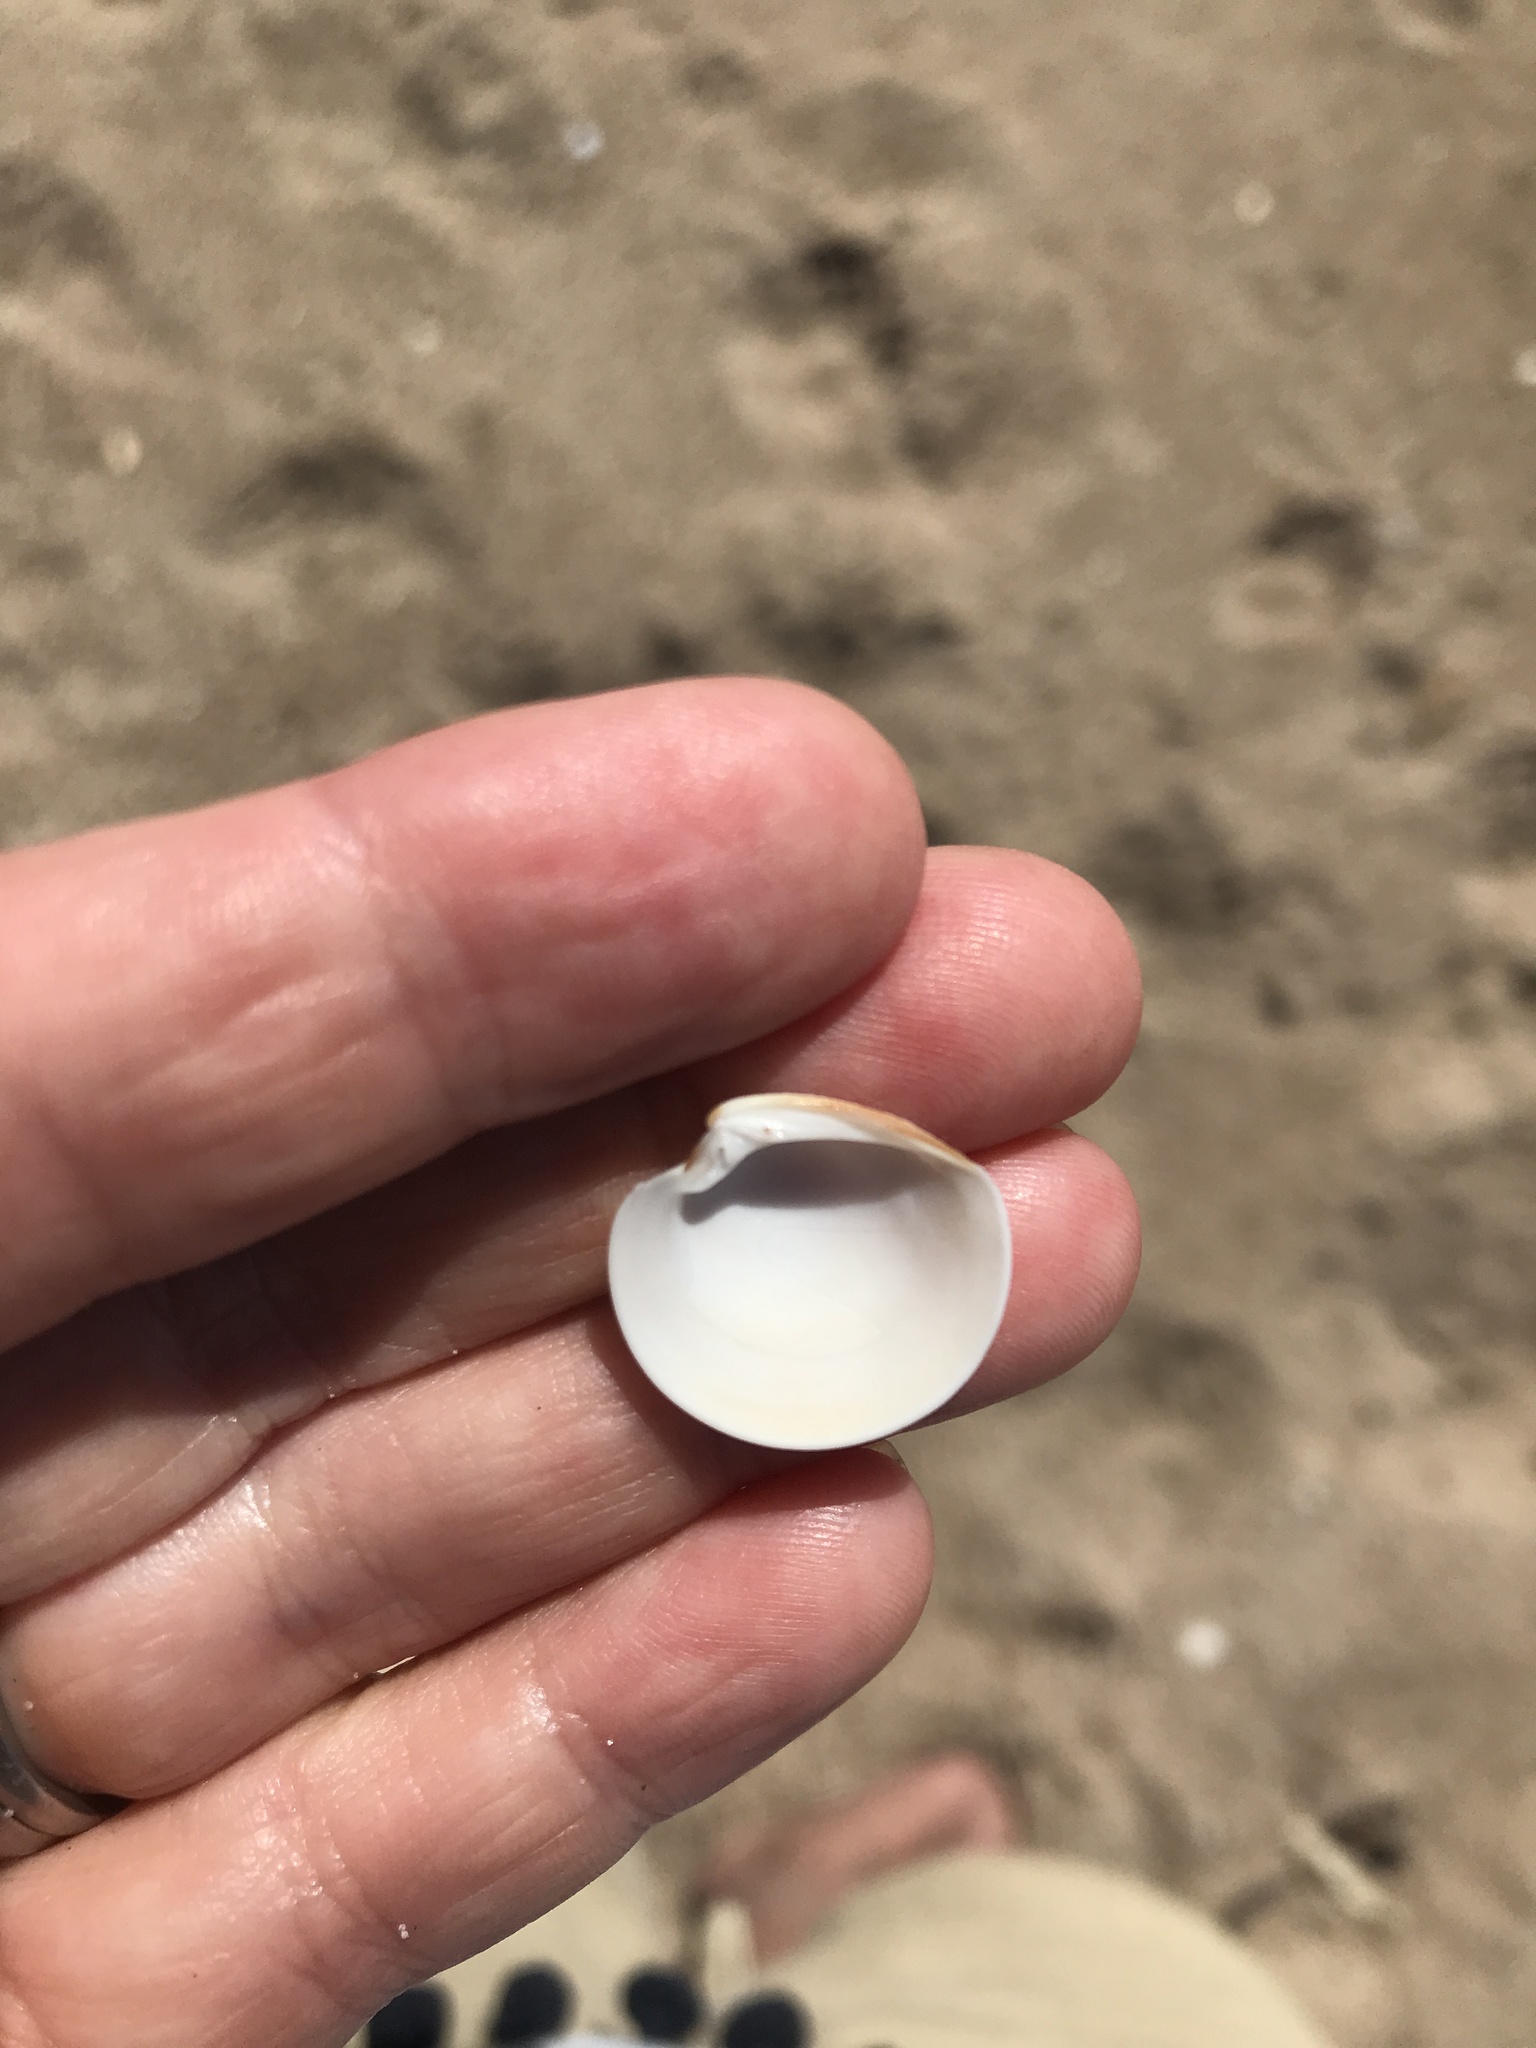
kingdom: Animalia
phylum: Mollusca
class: Bivalvia
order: Venerida
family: Veneridae
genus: Dosinia
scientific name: Dosinia subrosea
